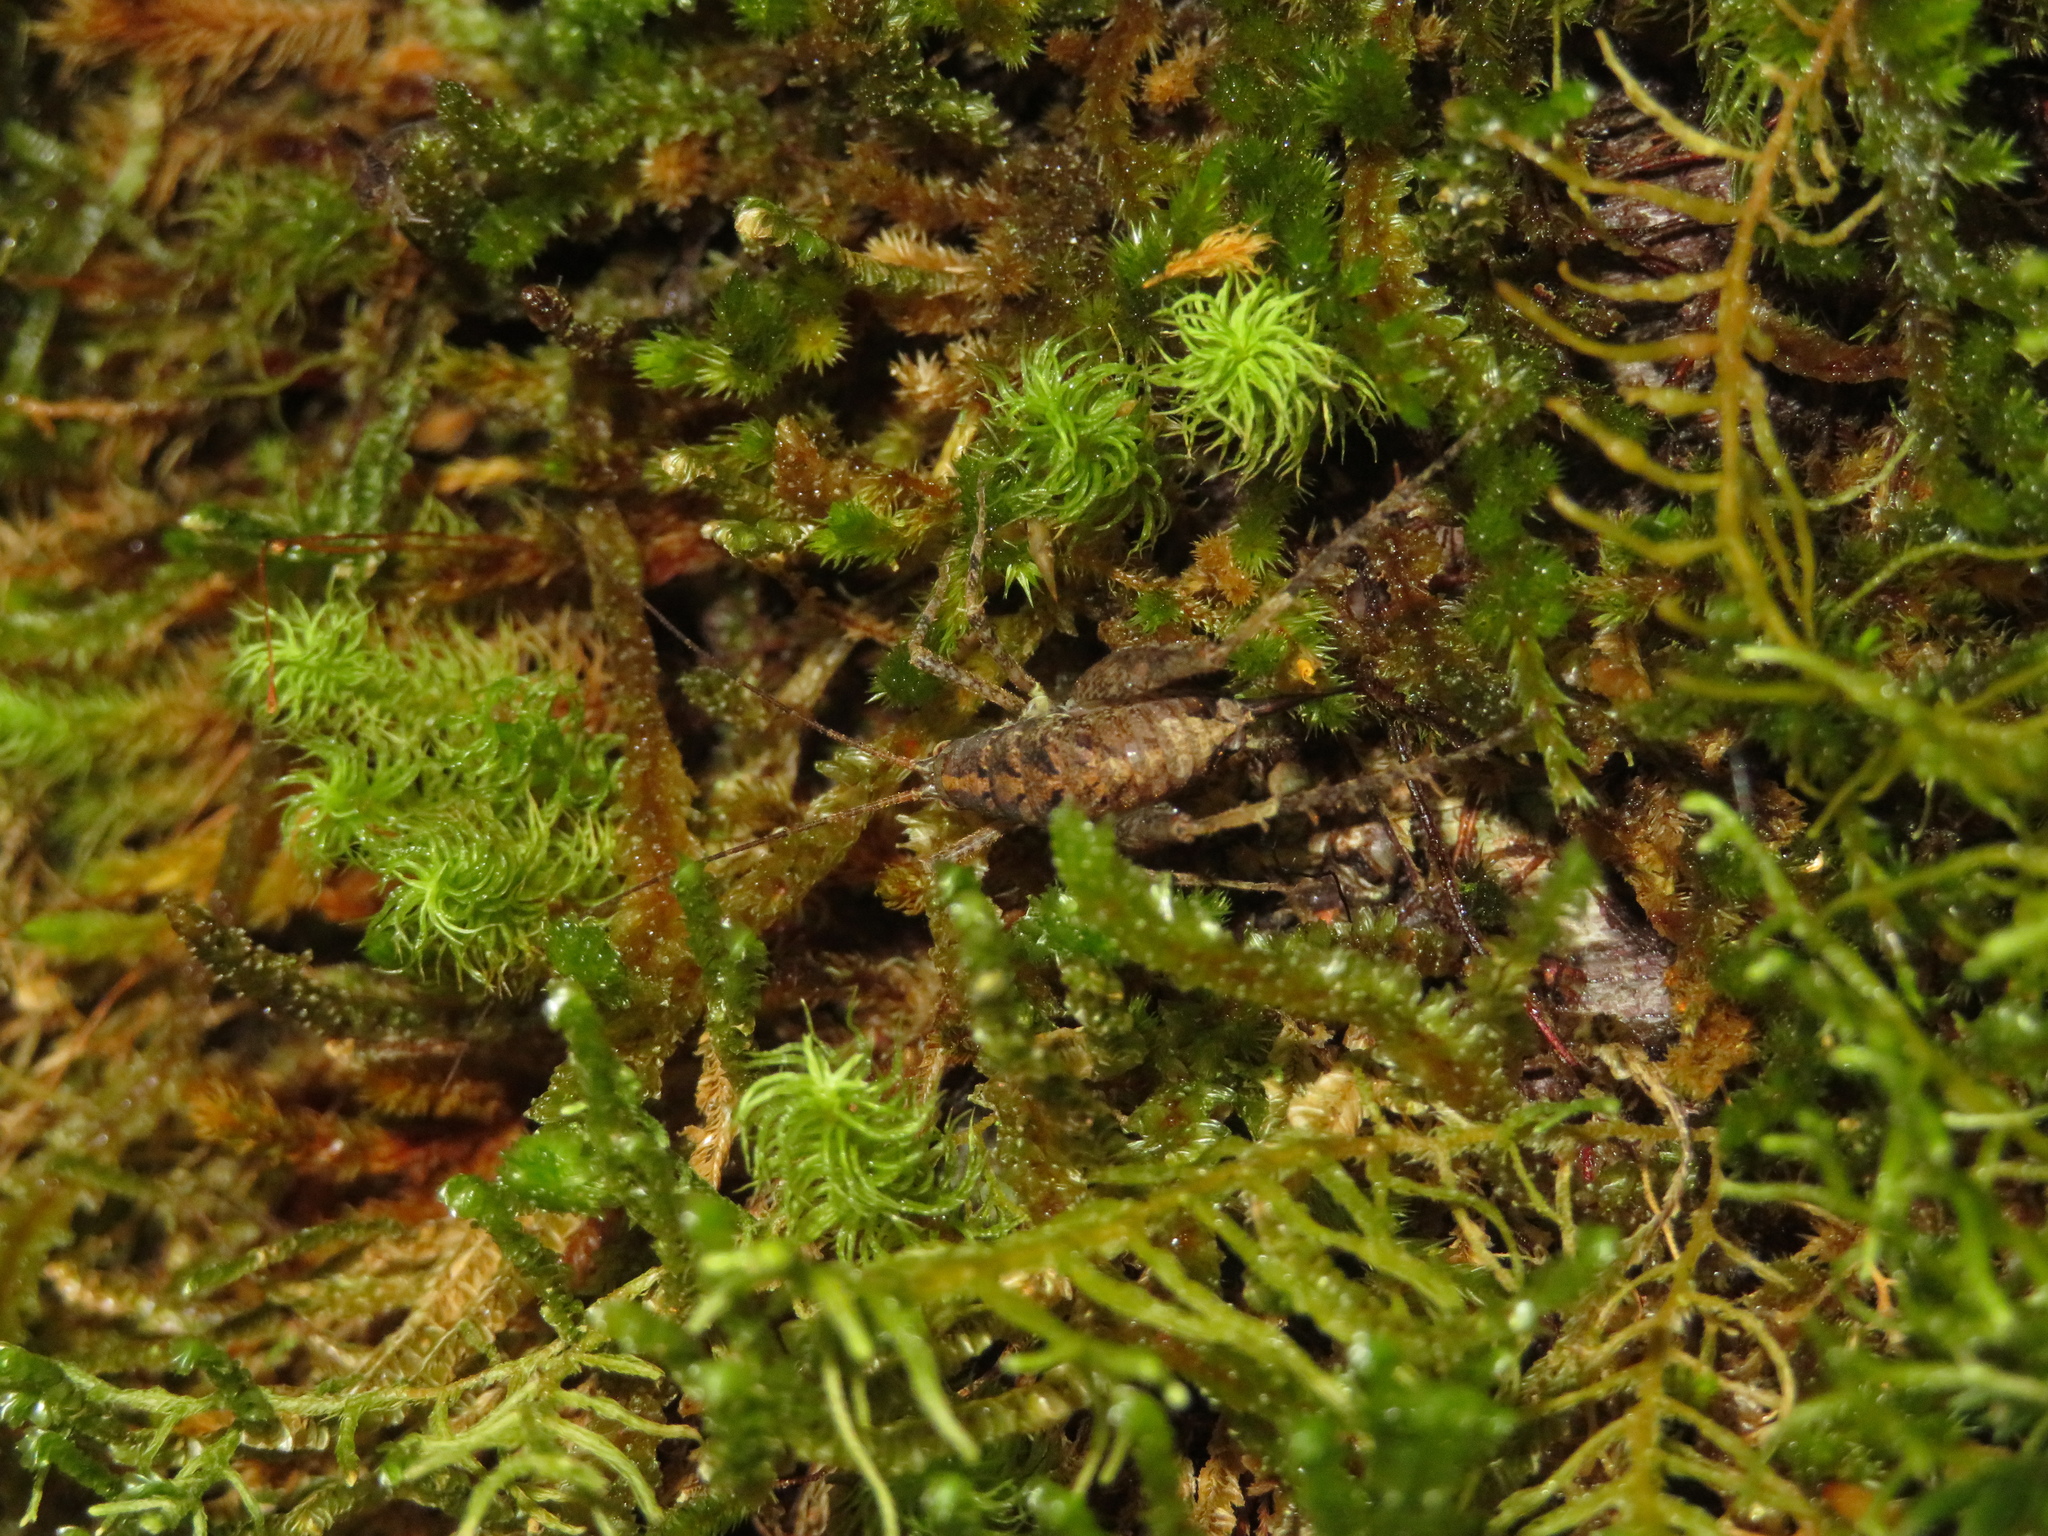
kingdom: Animalia
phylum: Arthropoda
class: Insecta
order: Orthoptera
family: Rhaphidophoridae
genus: Pleioplectron
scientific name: Pleioplectron crystallae
